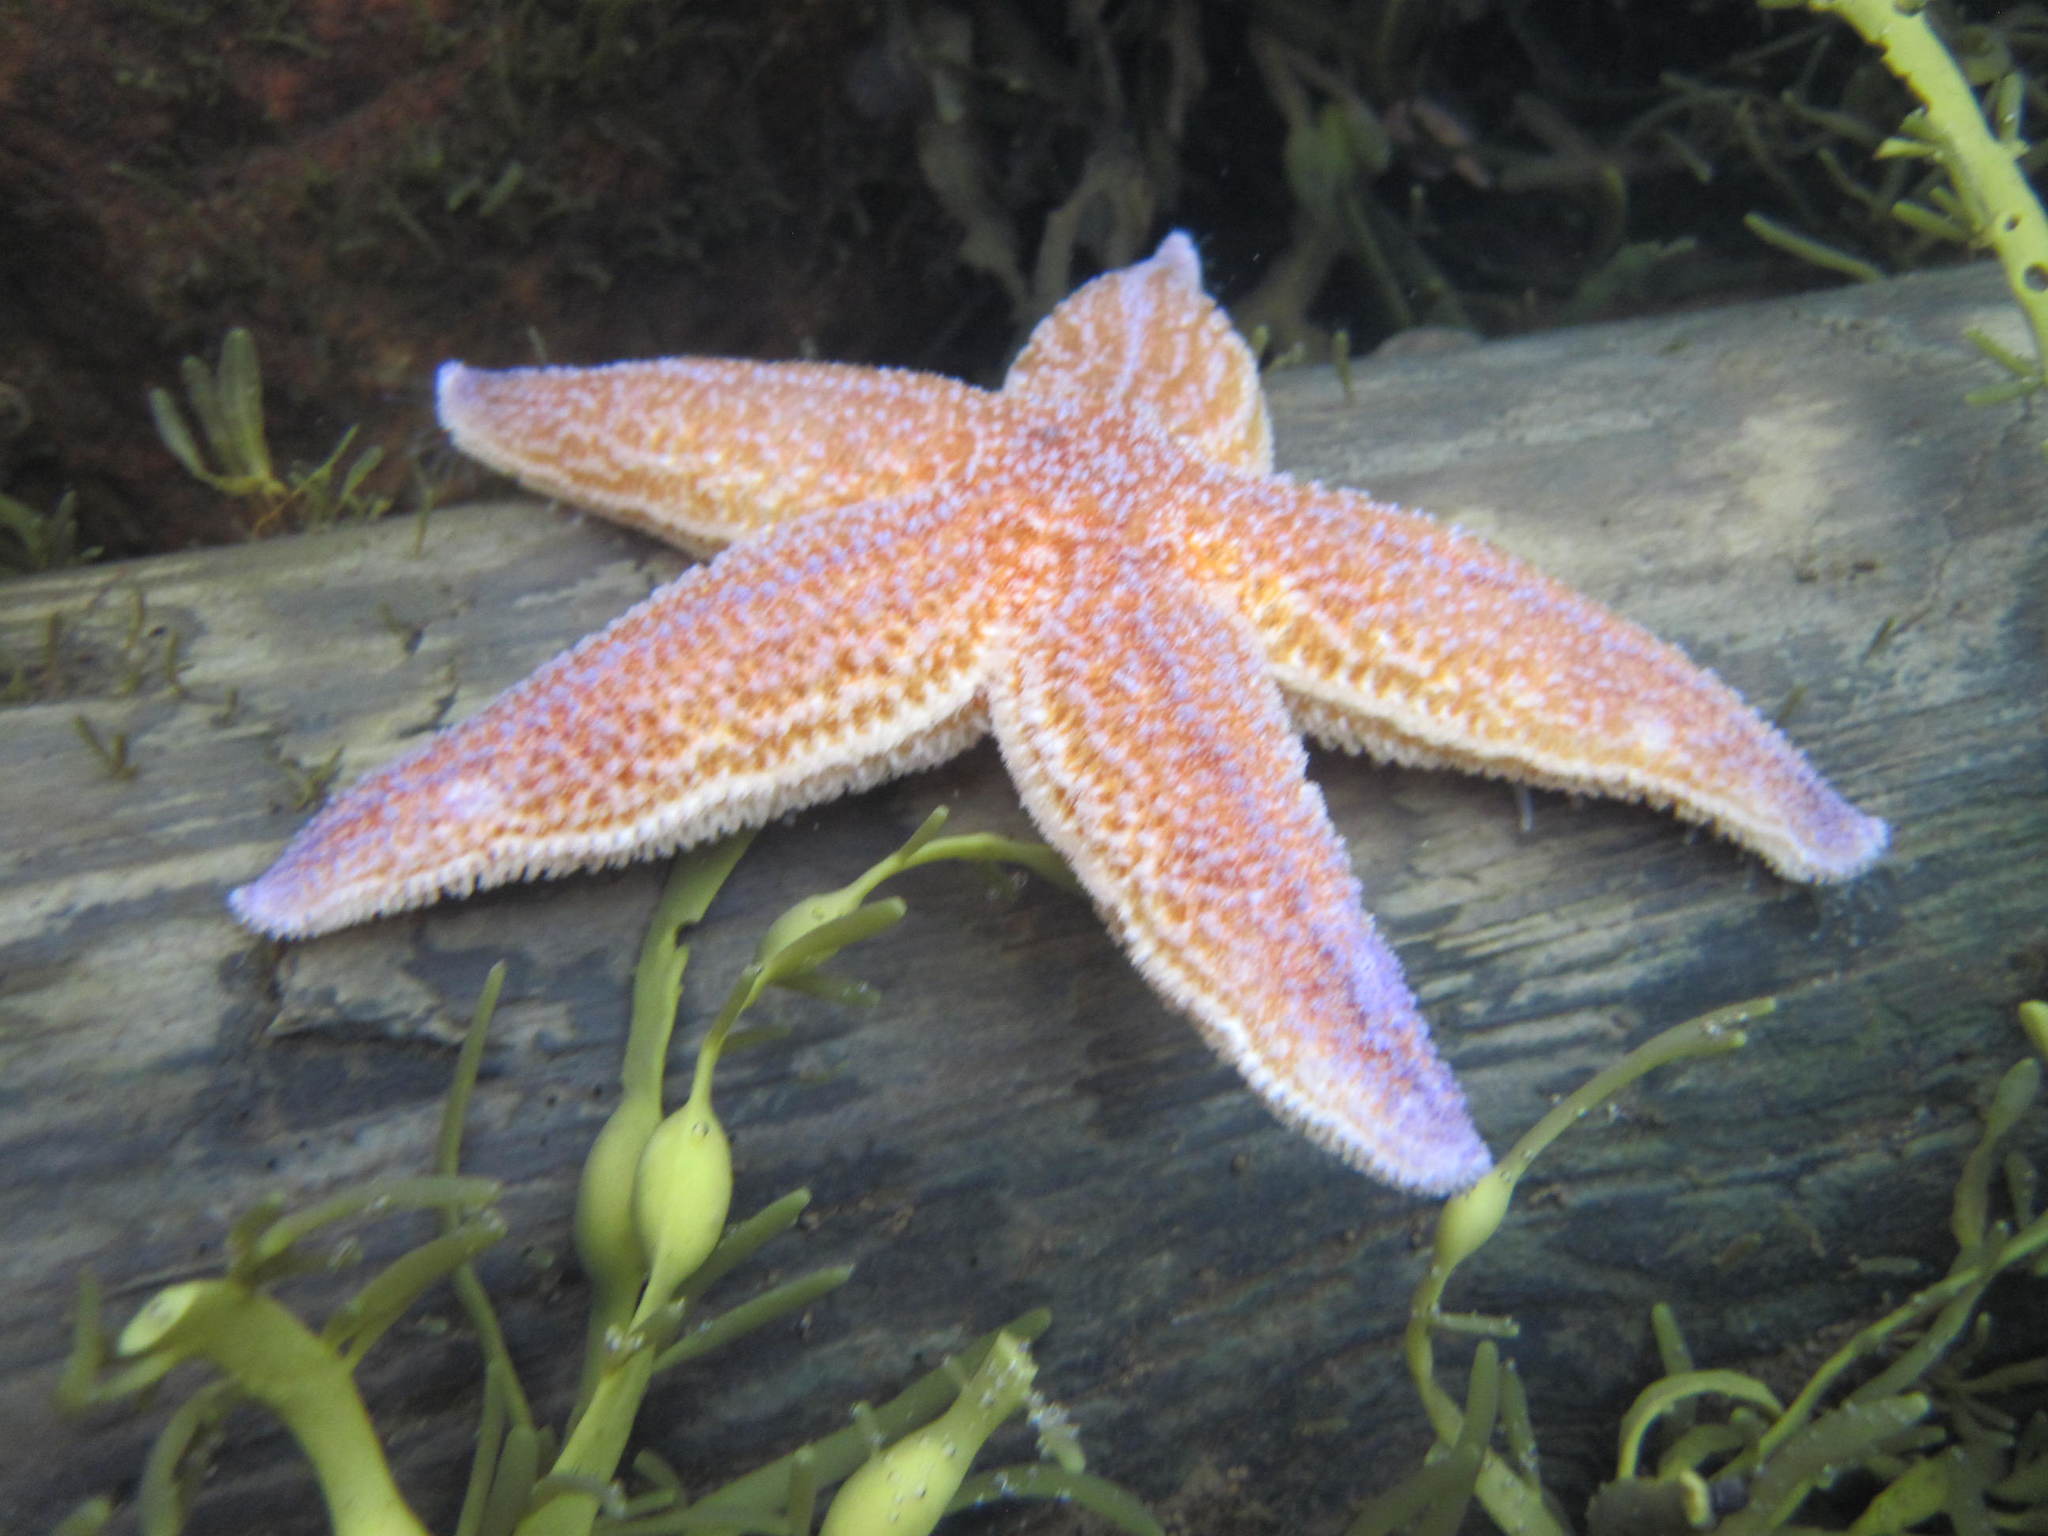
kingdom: Animalia
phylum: Echinodermata
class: Asteroidea
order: Forcipulatida
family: Asteriidae
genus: Asterias
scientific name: Asterias rubens
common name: Common starfish
